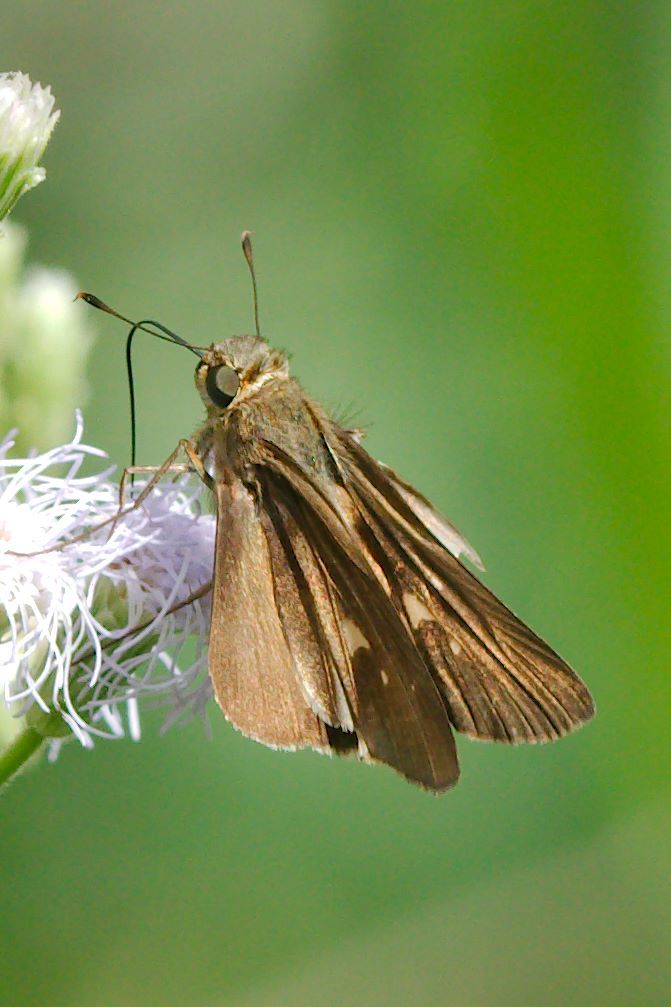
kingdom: Animalia
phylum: Arthropoda
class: Insecta
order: Lepidoptera
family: Hesperiidae
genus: Panoquina
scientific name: Panoquina ocola
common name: Ocola skipper
